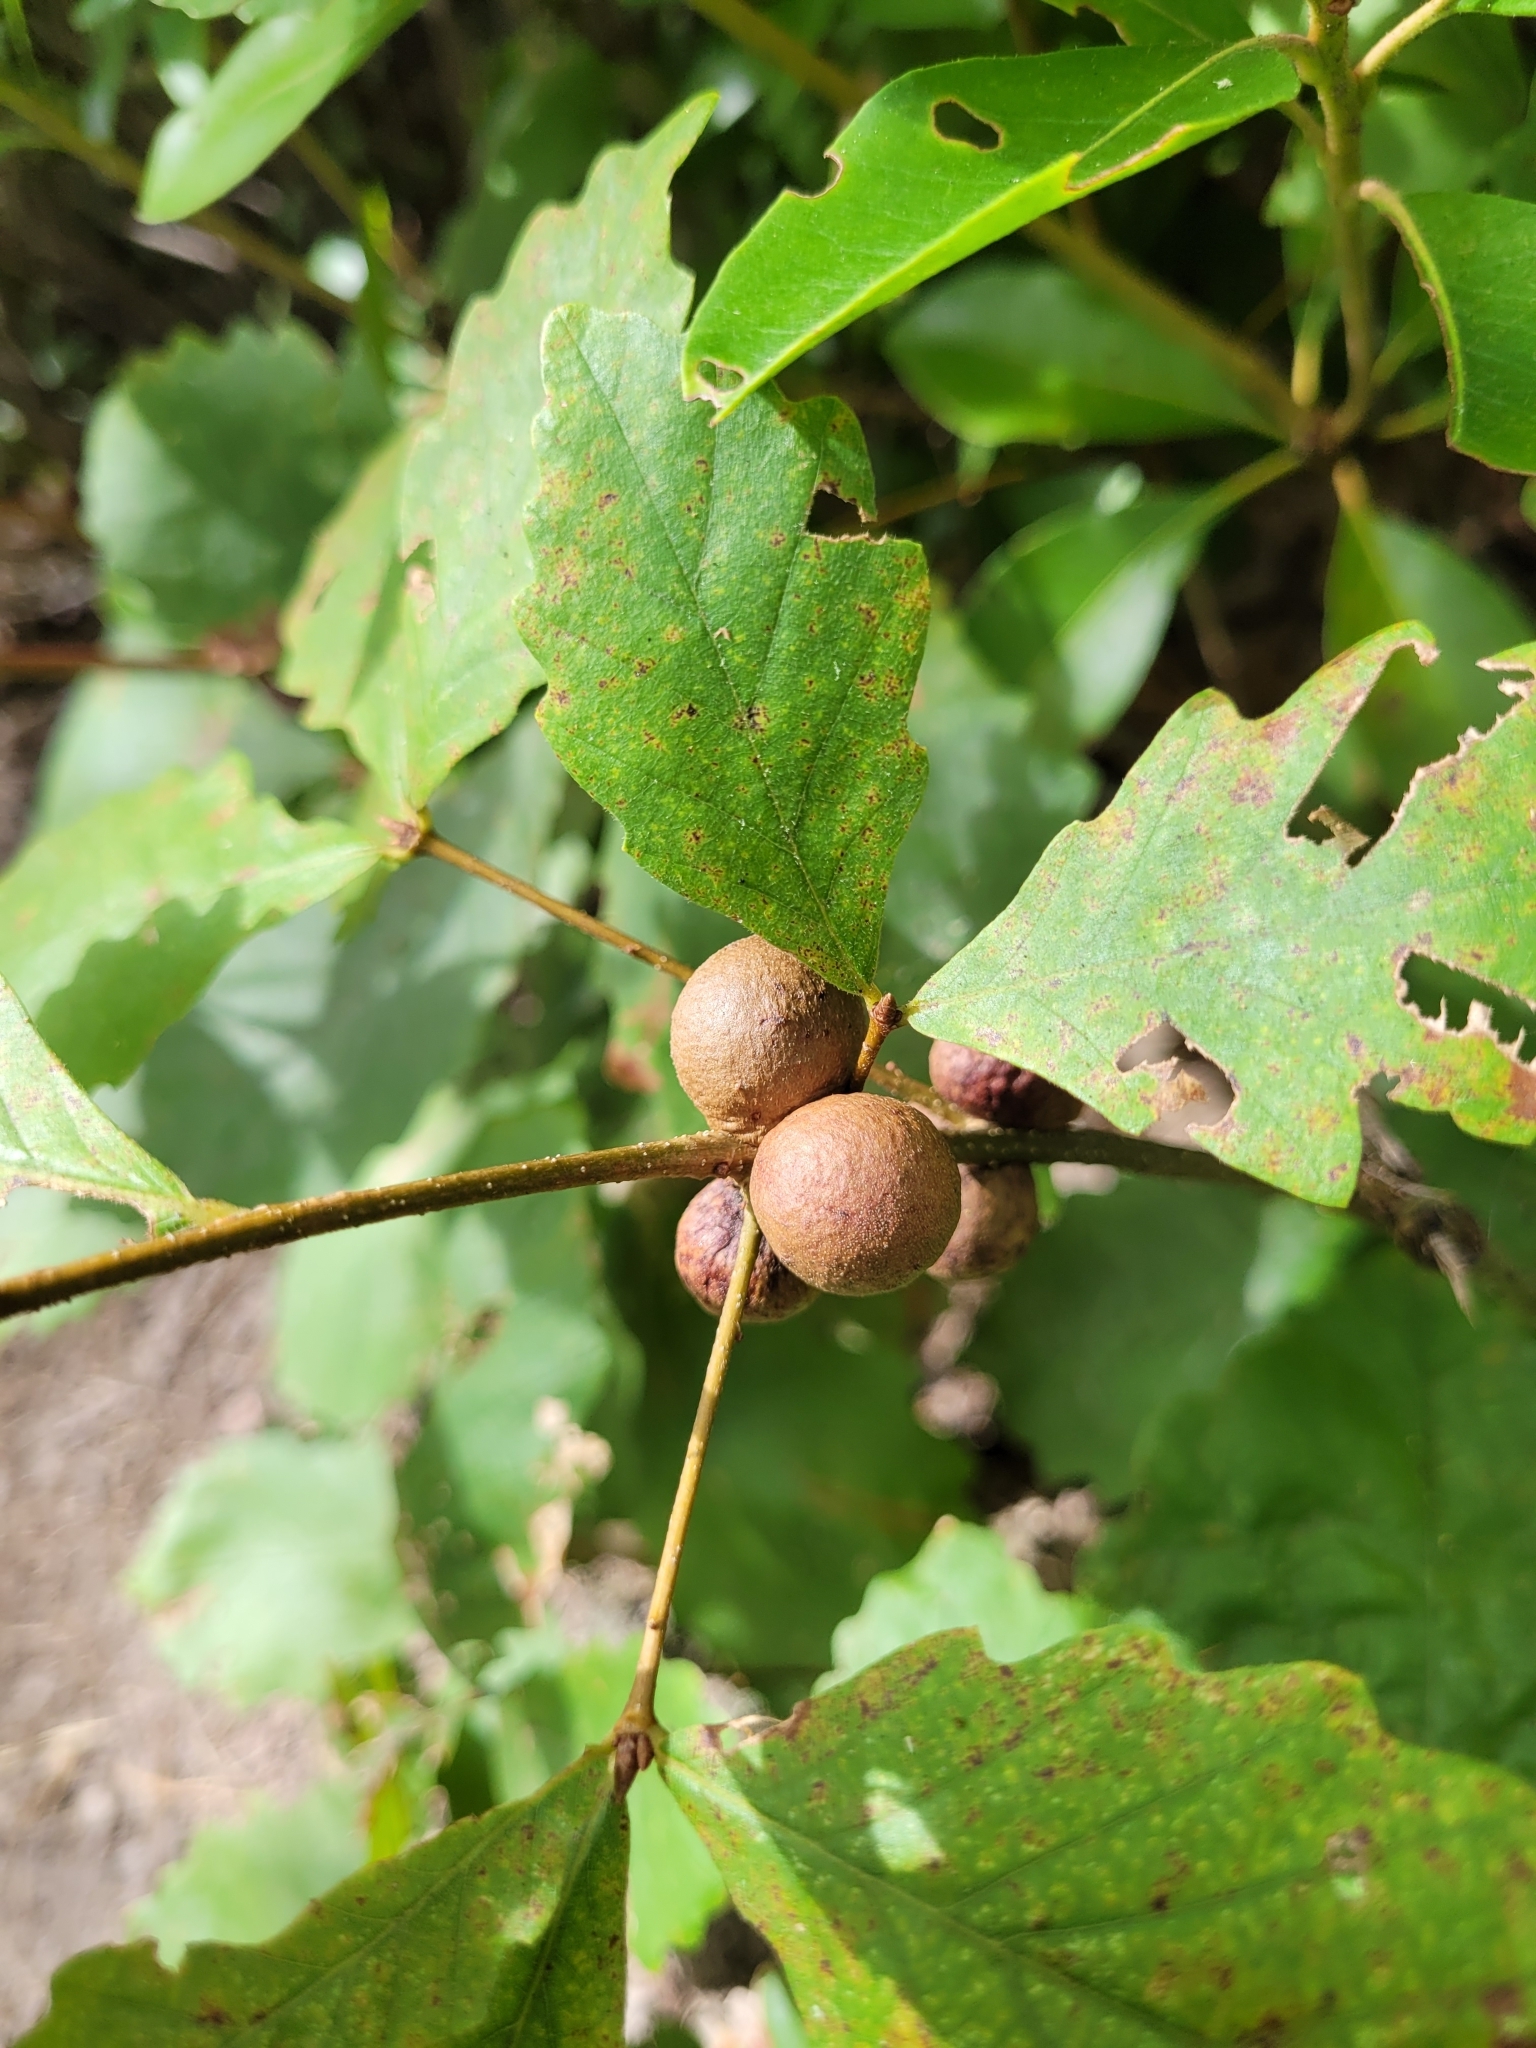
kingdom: Animalia
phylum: Arthropoda
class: Insecta
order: Hymenoptera
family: Cynipidae
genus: Disholcaspis
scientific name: Disholcaspis quercusglobulus
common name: Round bullet gall wasp
